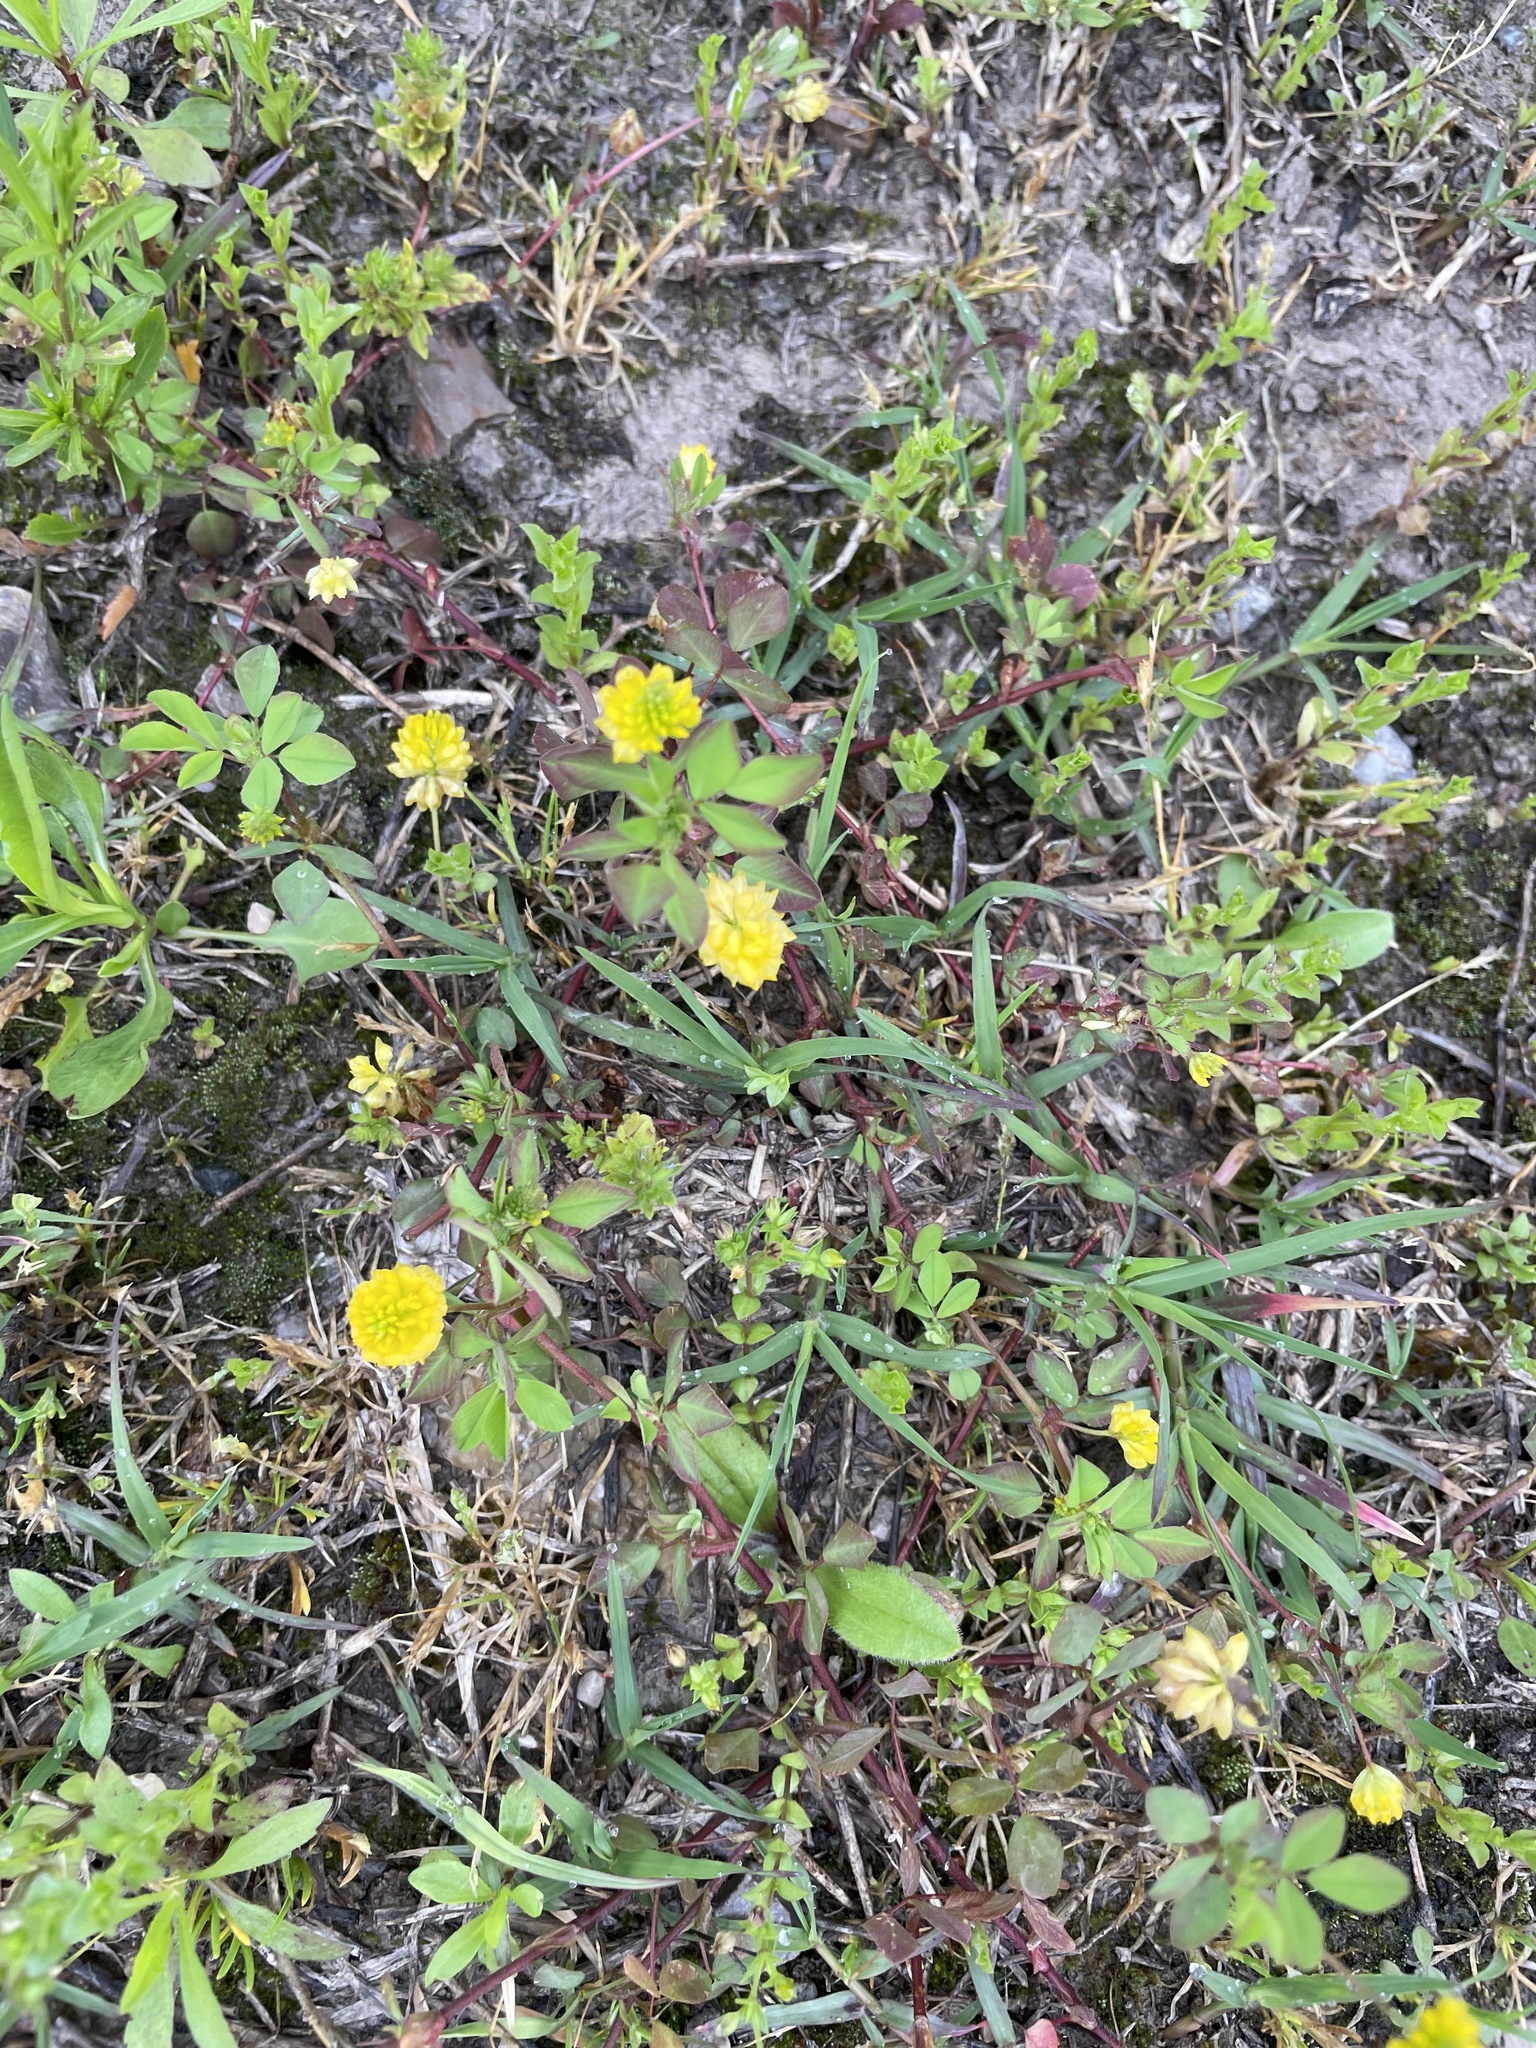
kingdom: Plantae
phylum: Tracheophyta
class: Magnoliopsida
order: Fabales
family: Fabaceae
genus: Trifolium
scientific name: Trifolium campestre
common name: Field clover
